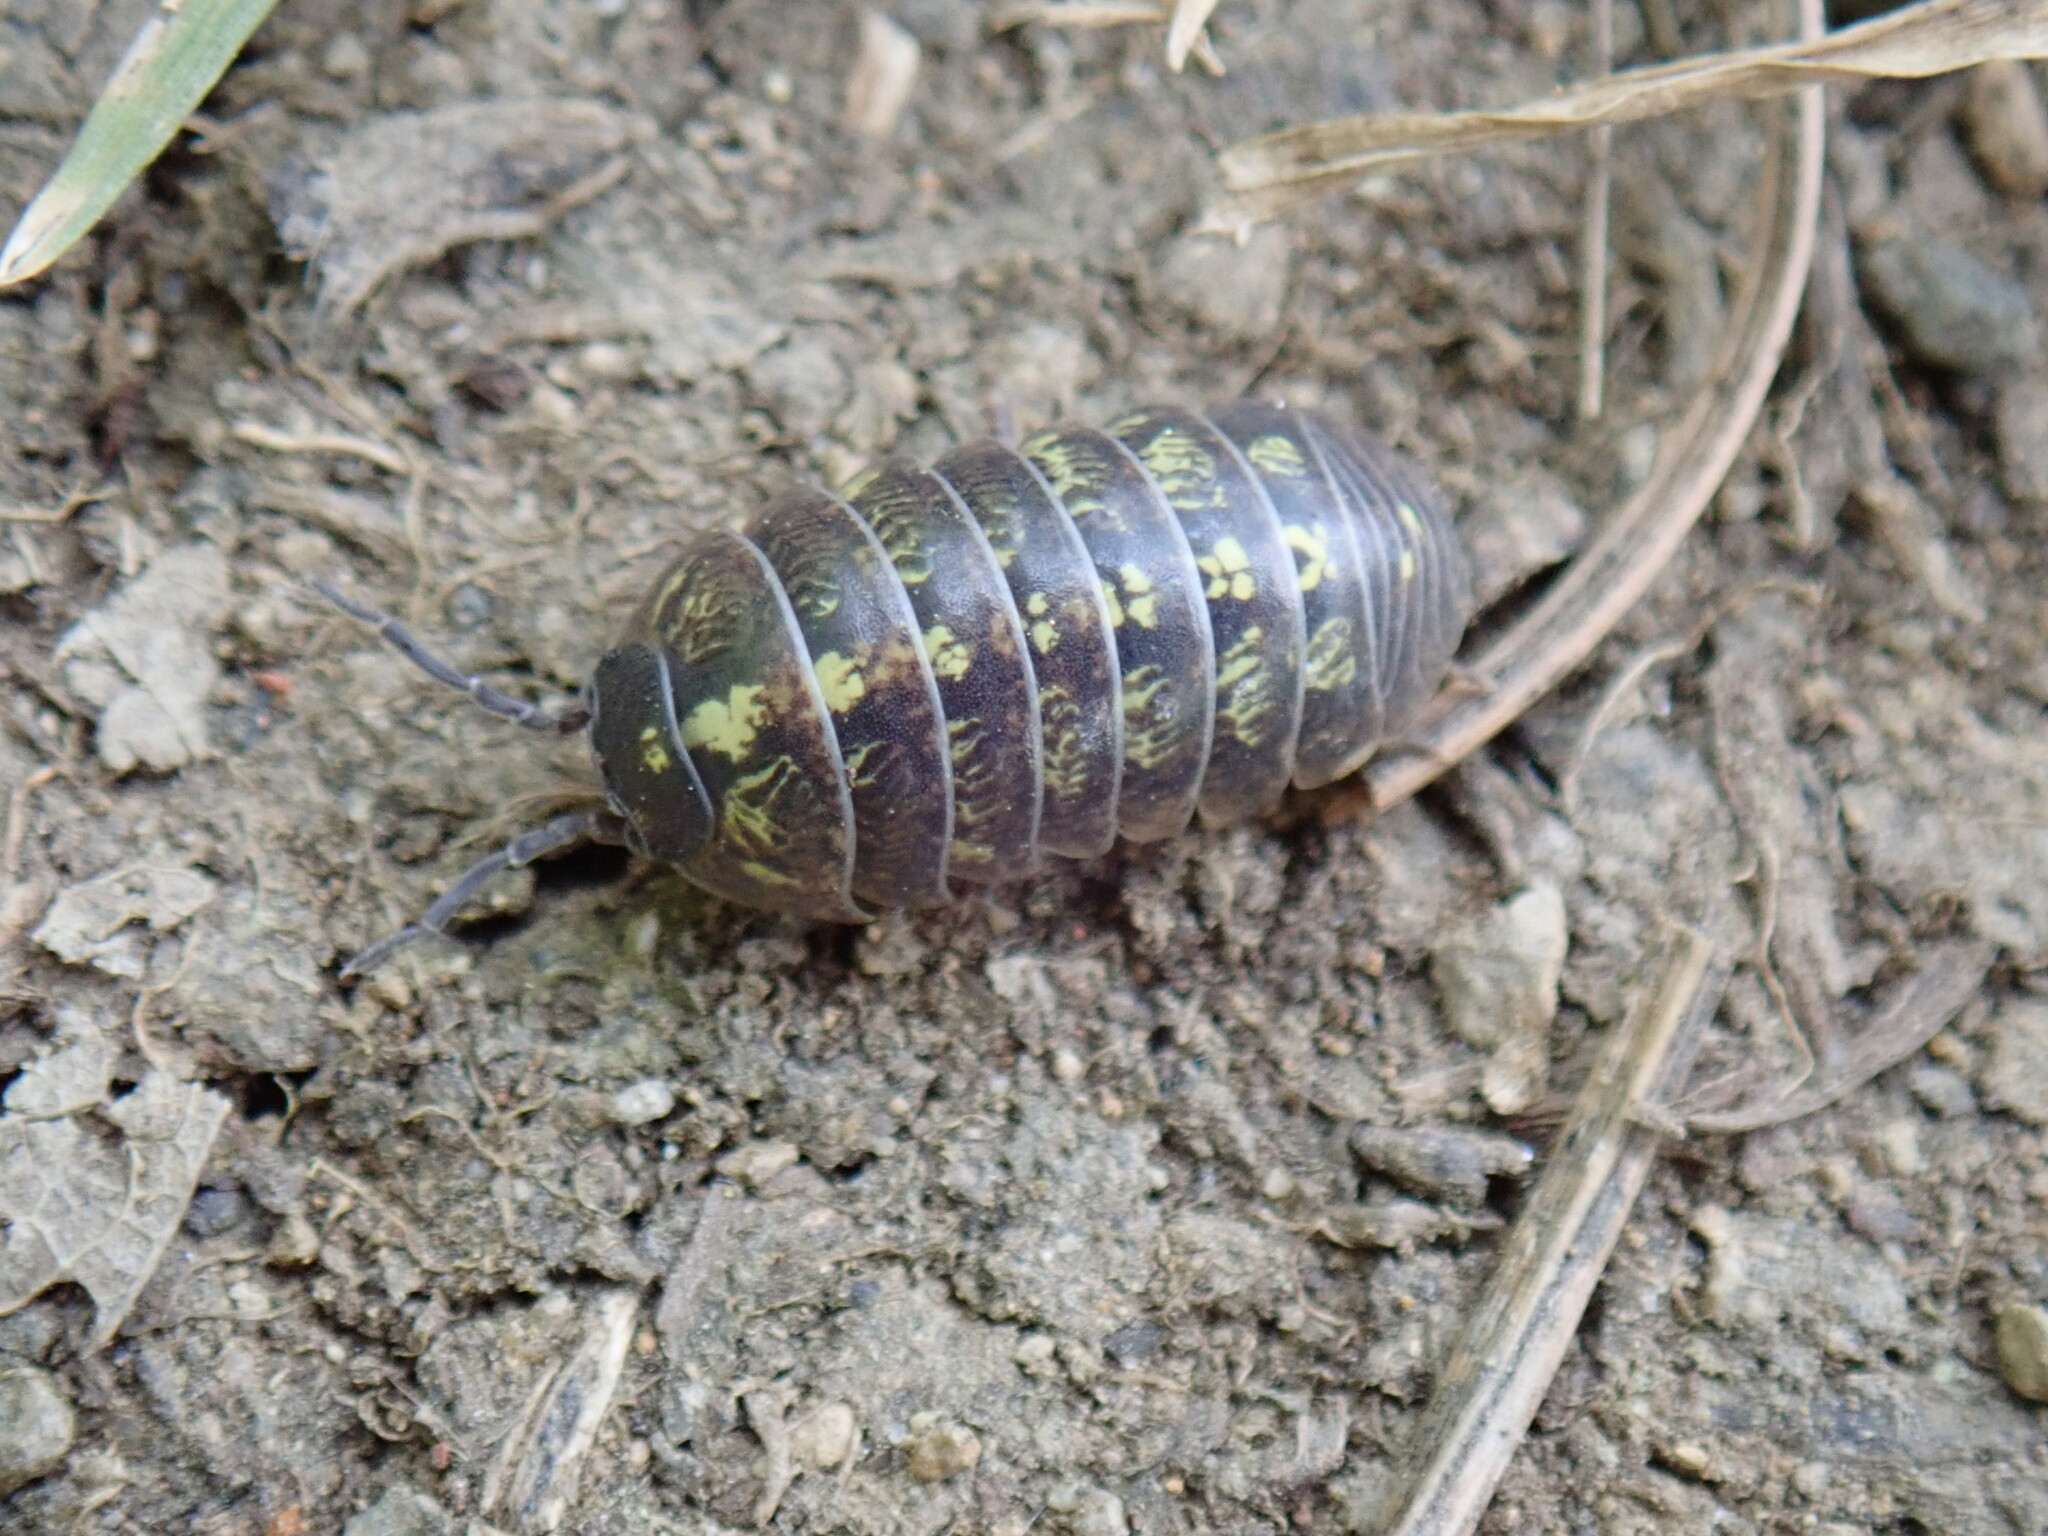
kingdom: Animalia
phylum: Arthropoda
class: Malacostraca
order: Isopoda
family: Armadillidiidae
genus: Armadillidium
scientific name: Armadillidium granulatum
